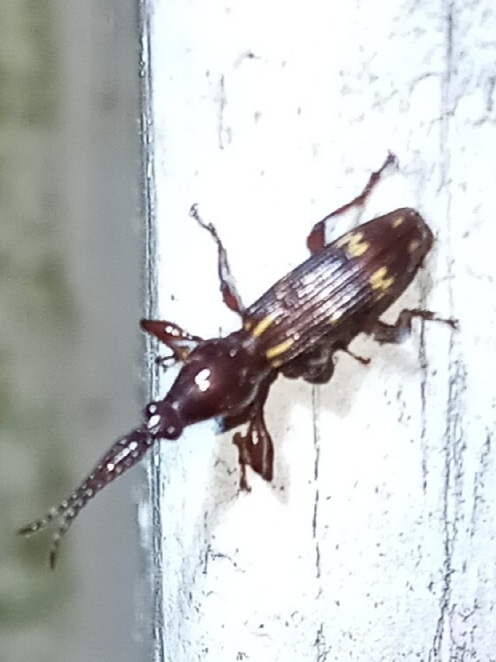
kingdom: Animalia
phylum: Arthropoda
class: Insecta
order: Coleoptera
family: Brentidae
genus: Arrenodes
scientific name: Arrenodes minutus
